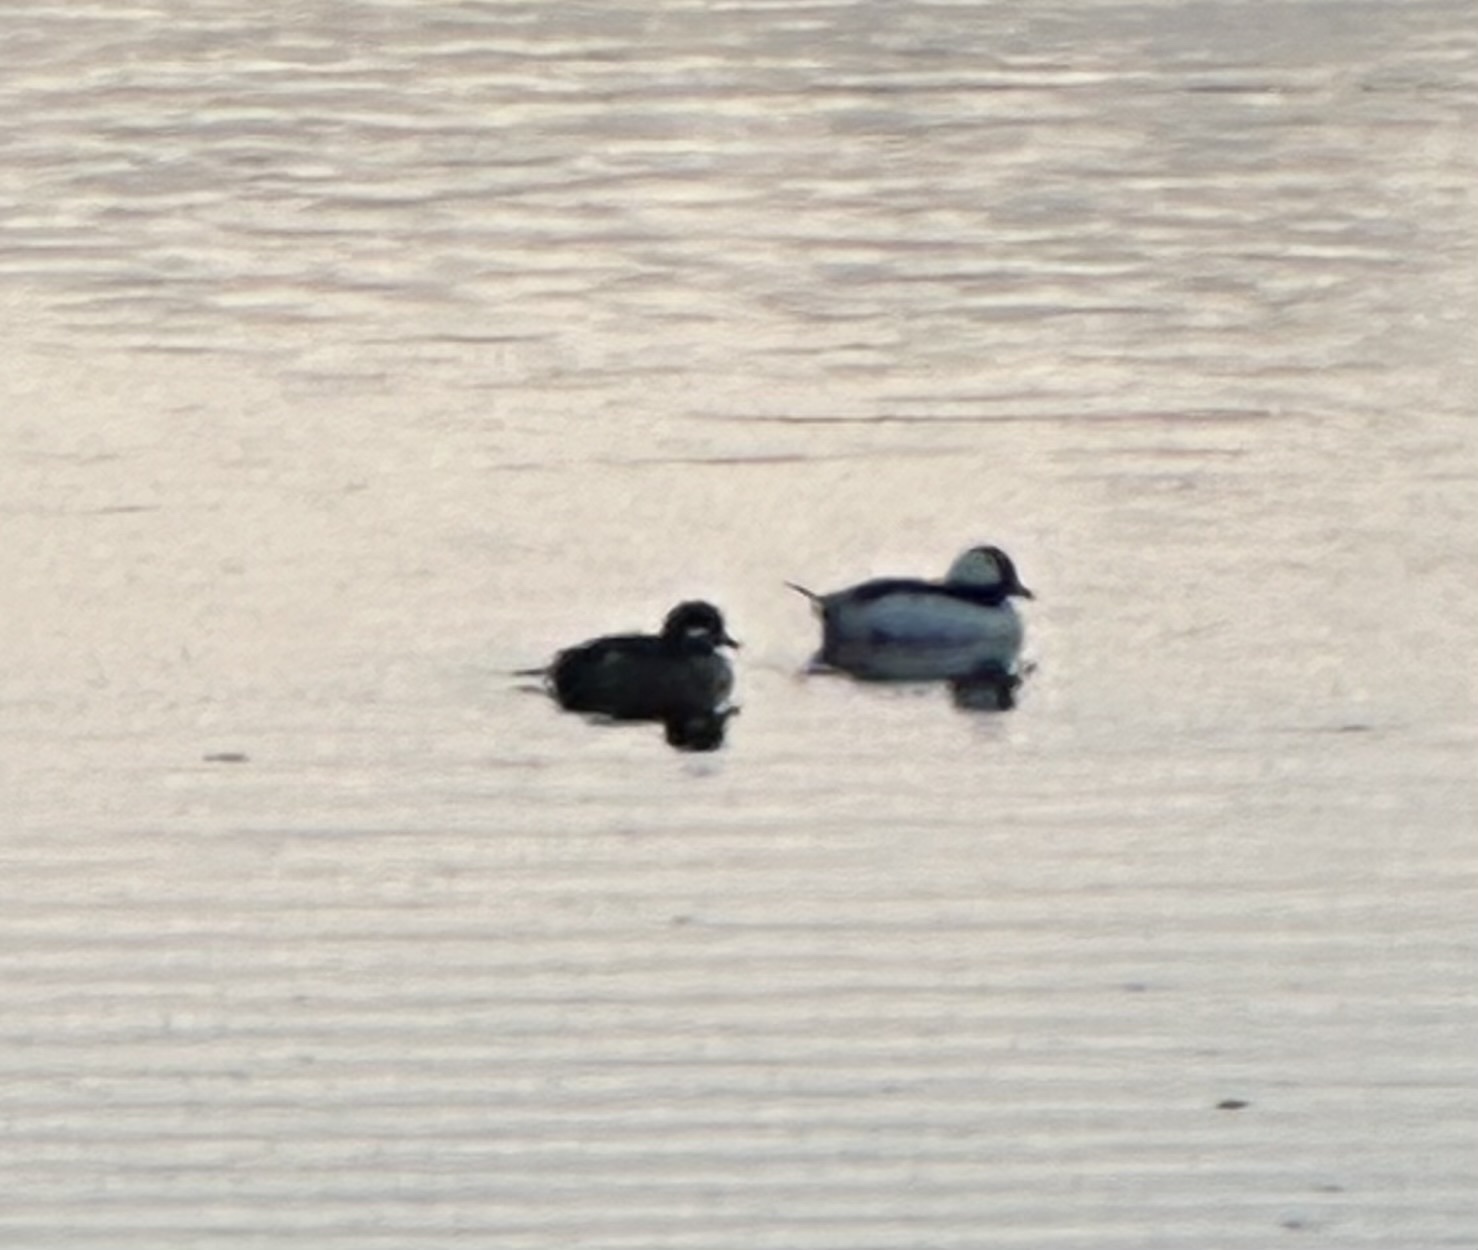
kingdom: Animalia
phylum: Chordata
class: Aves
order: Anseriformes
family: Anatidae
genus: Bucephala
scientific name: Bucephala albeola
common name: Bufflehead
